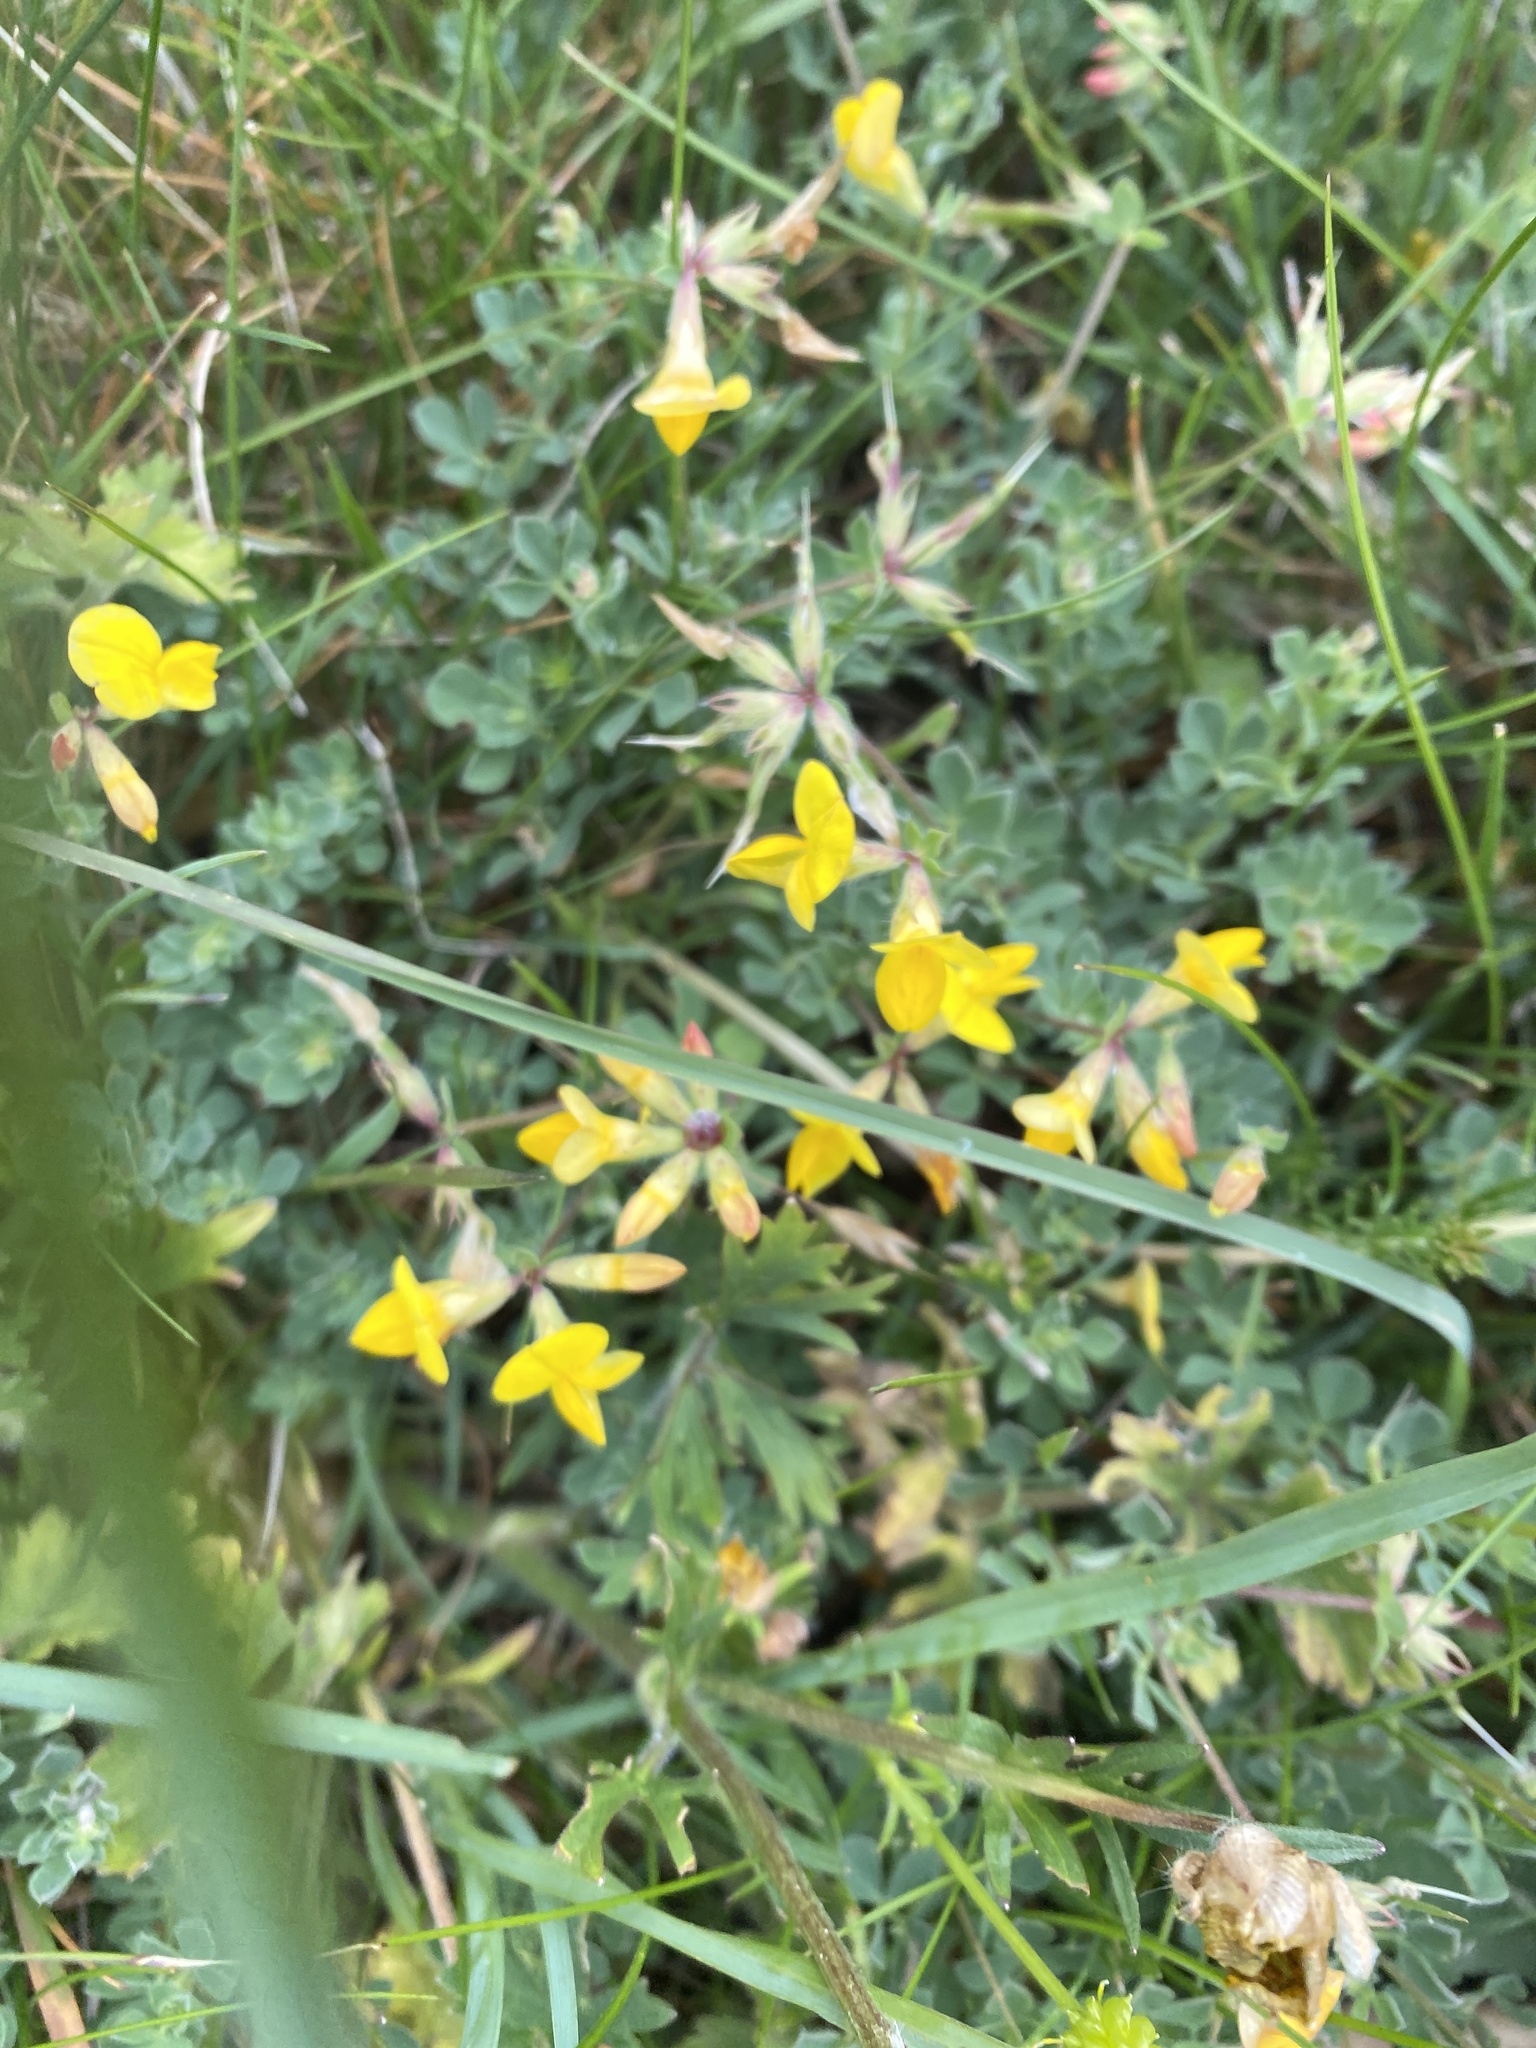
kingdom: Plantae
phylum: Tracheophyta
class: Magnoliopsida
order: Fabales
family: Fabaceae
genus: Lotus
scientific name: Lotus corniculatus
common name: Common bird's-foot-trefoil
